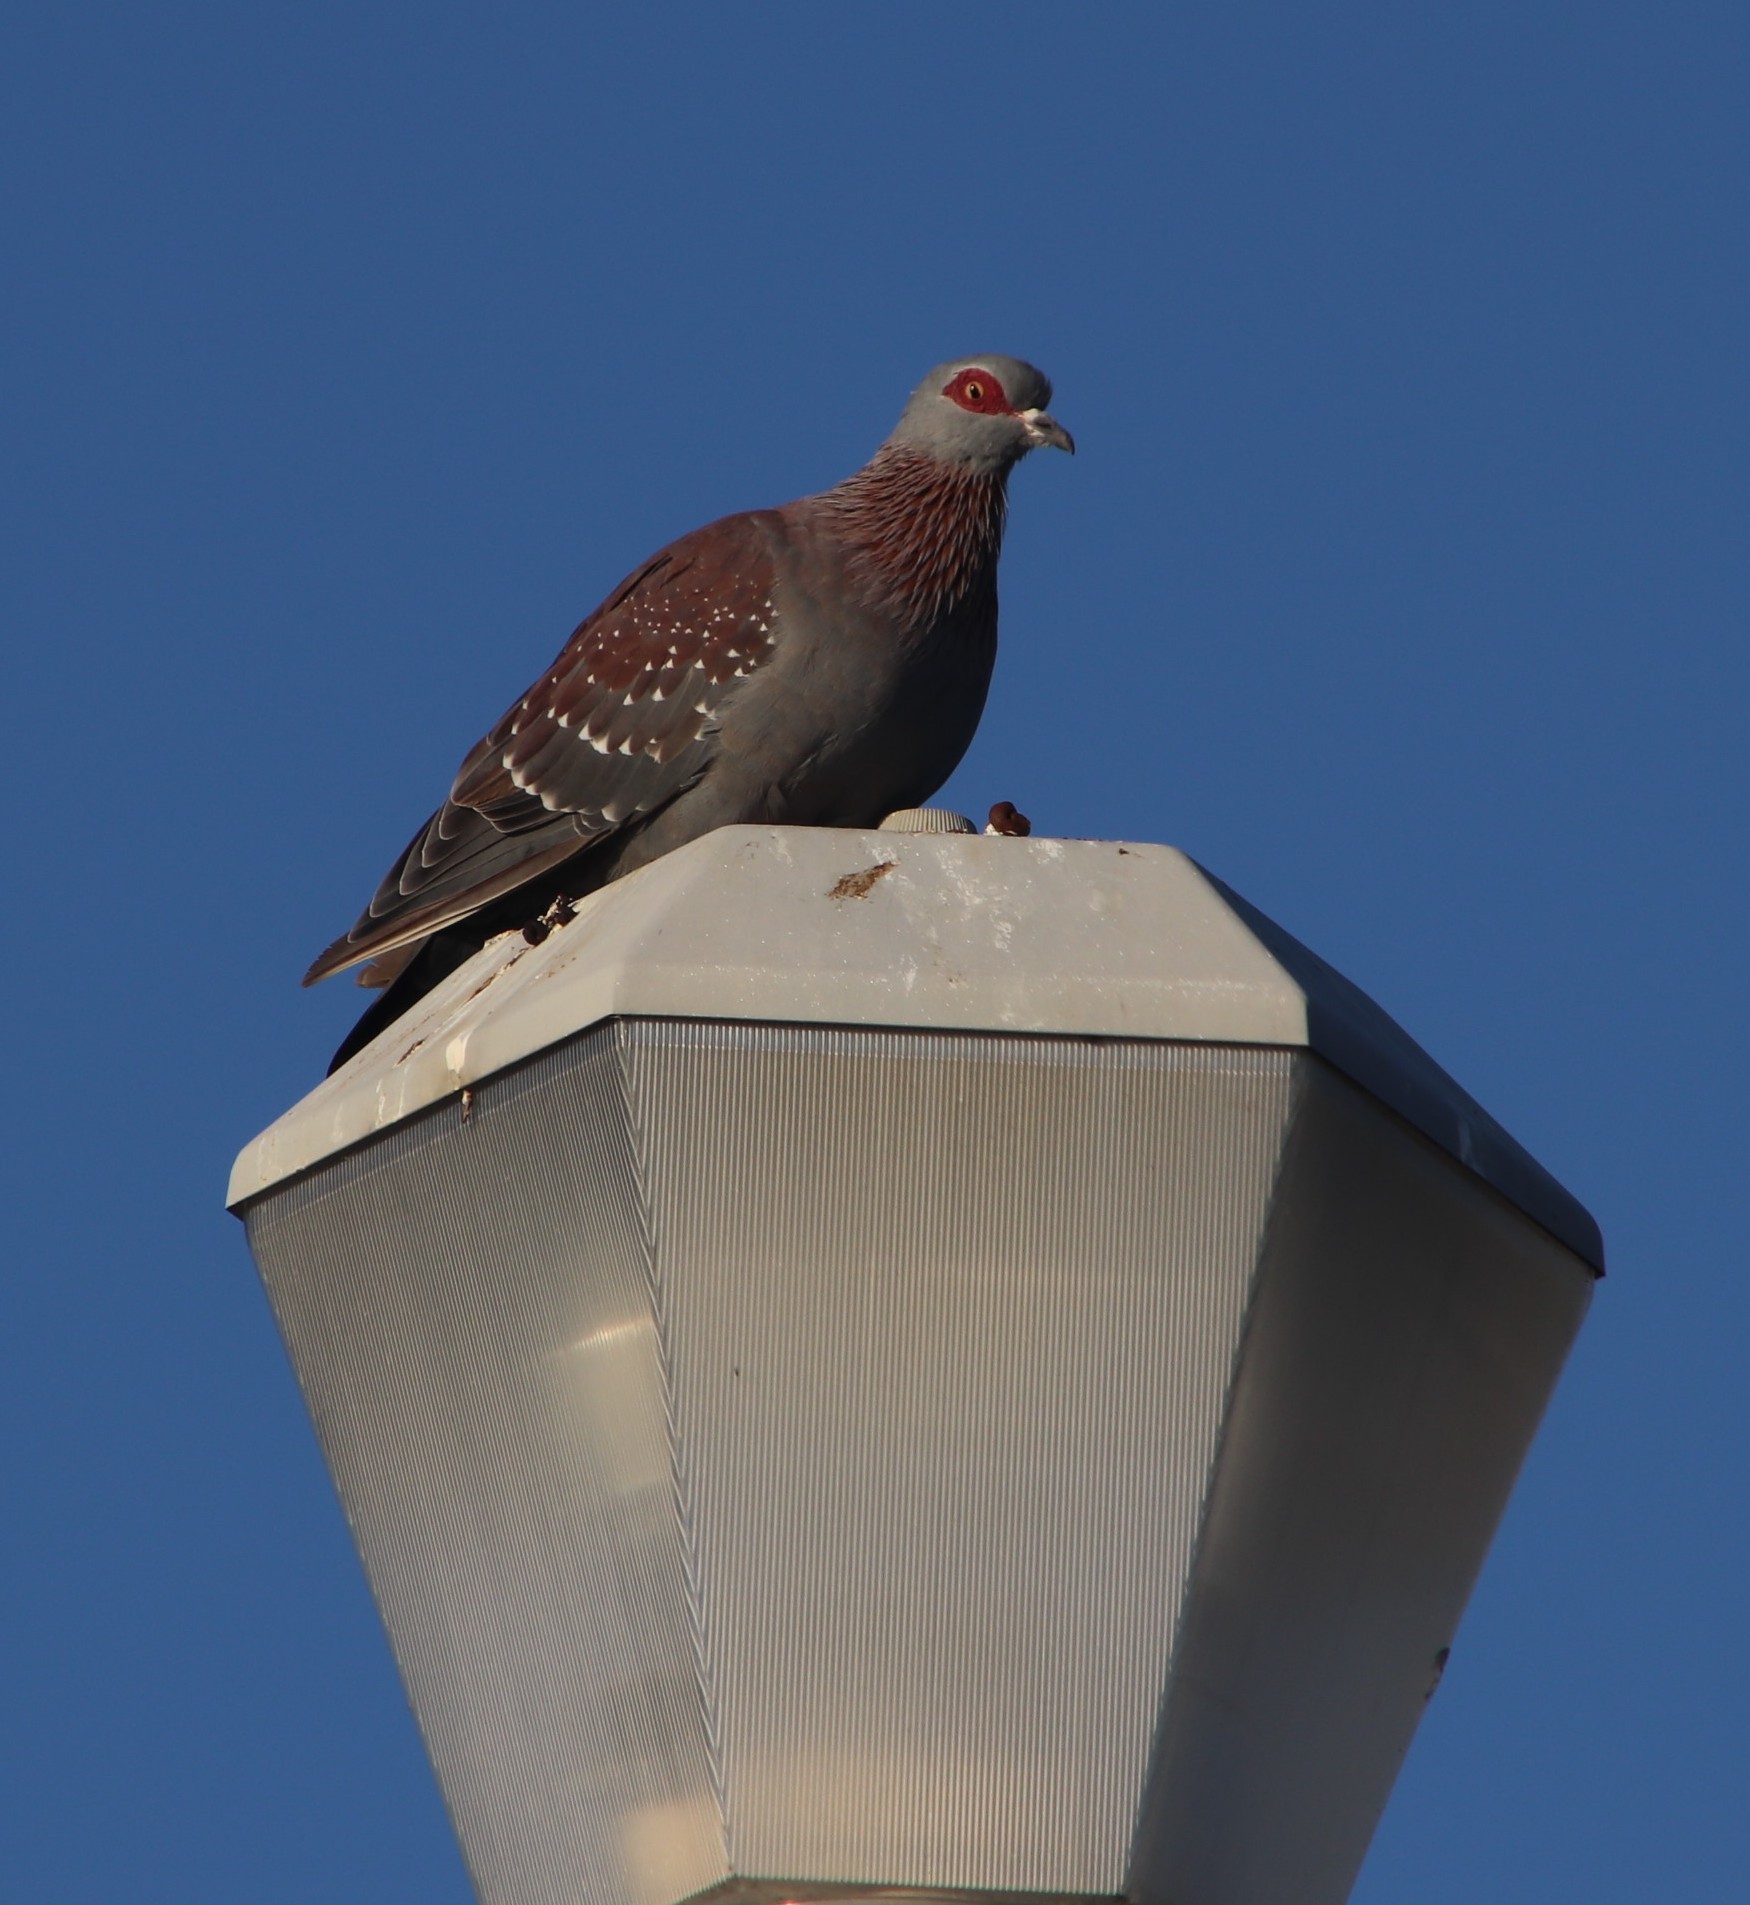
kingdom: Animalia
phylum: Chordata
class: Aves
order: Columbiformes
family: Columbidae
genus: Columba
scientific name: Columba guinea
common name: Speckled pigeon
